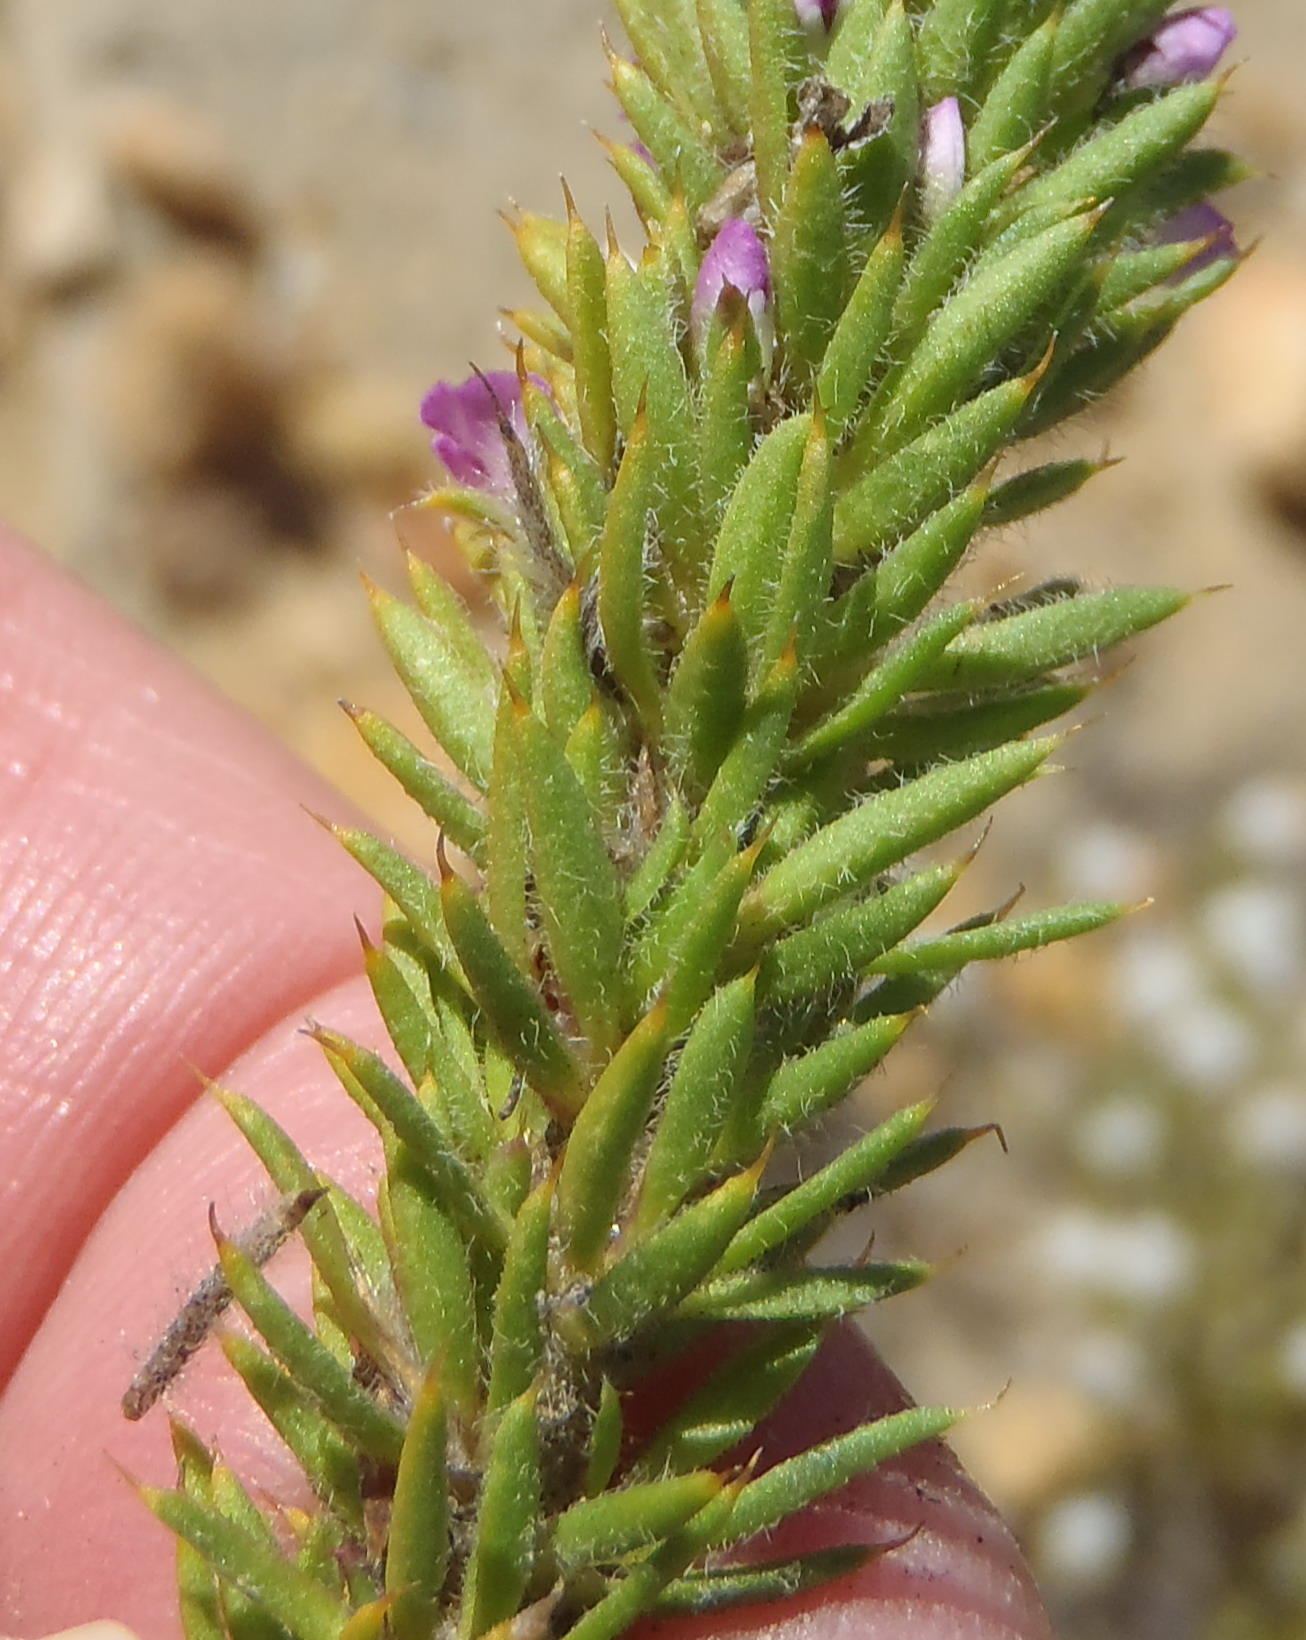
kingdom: Plantae
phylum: Tracheophyta
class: Magnoliopsida
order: Fabales
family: Polygalaceae
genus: Muraltia
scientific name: Muraltia squarrosa
